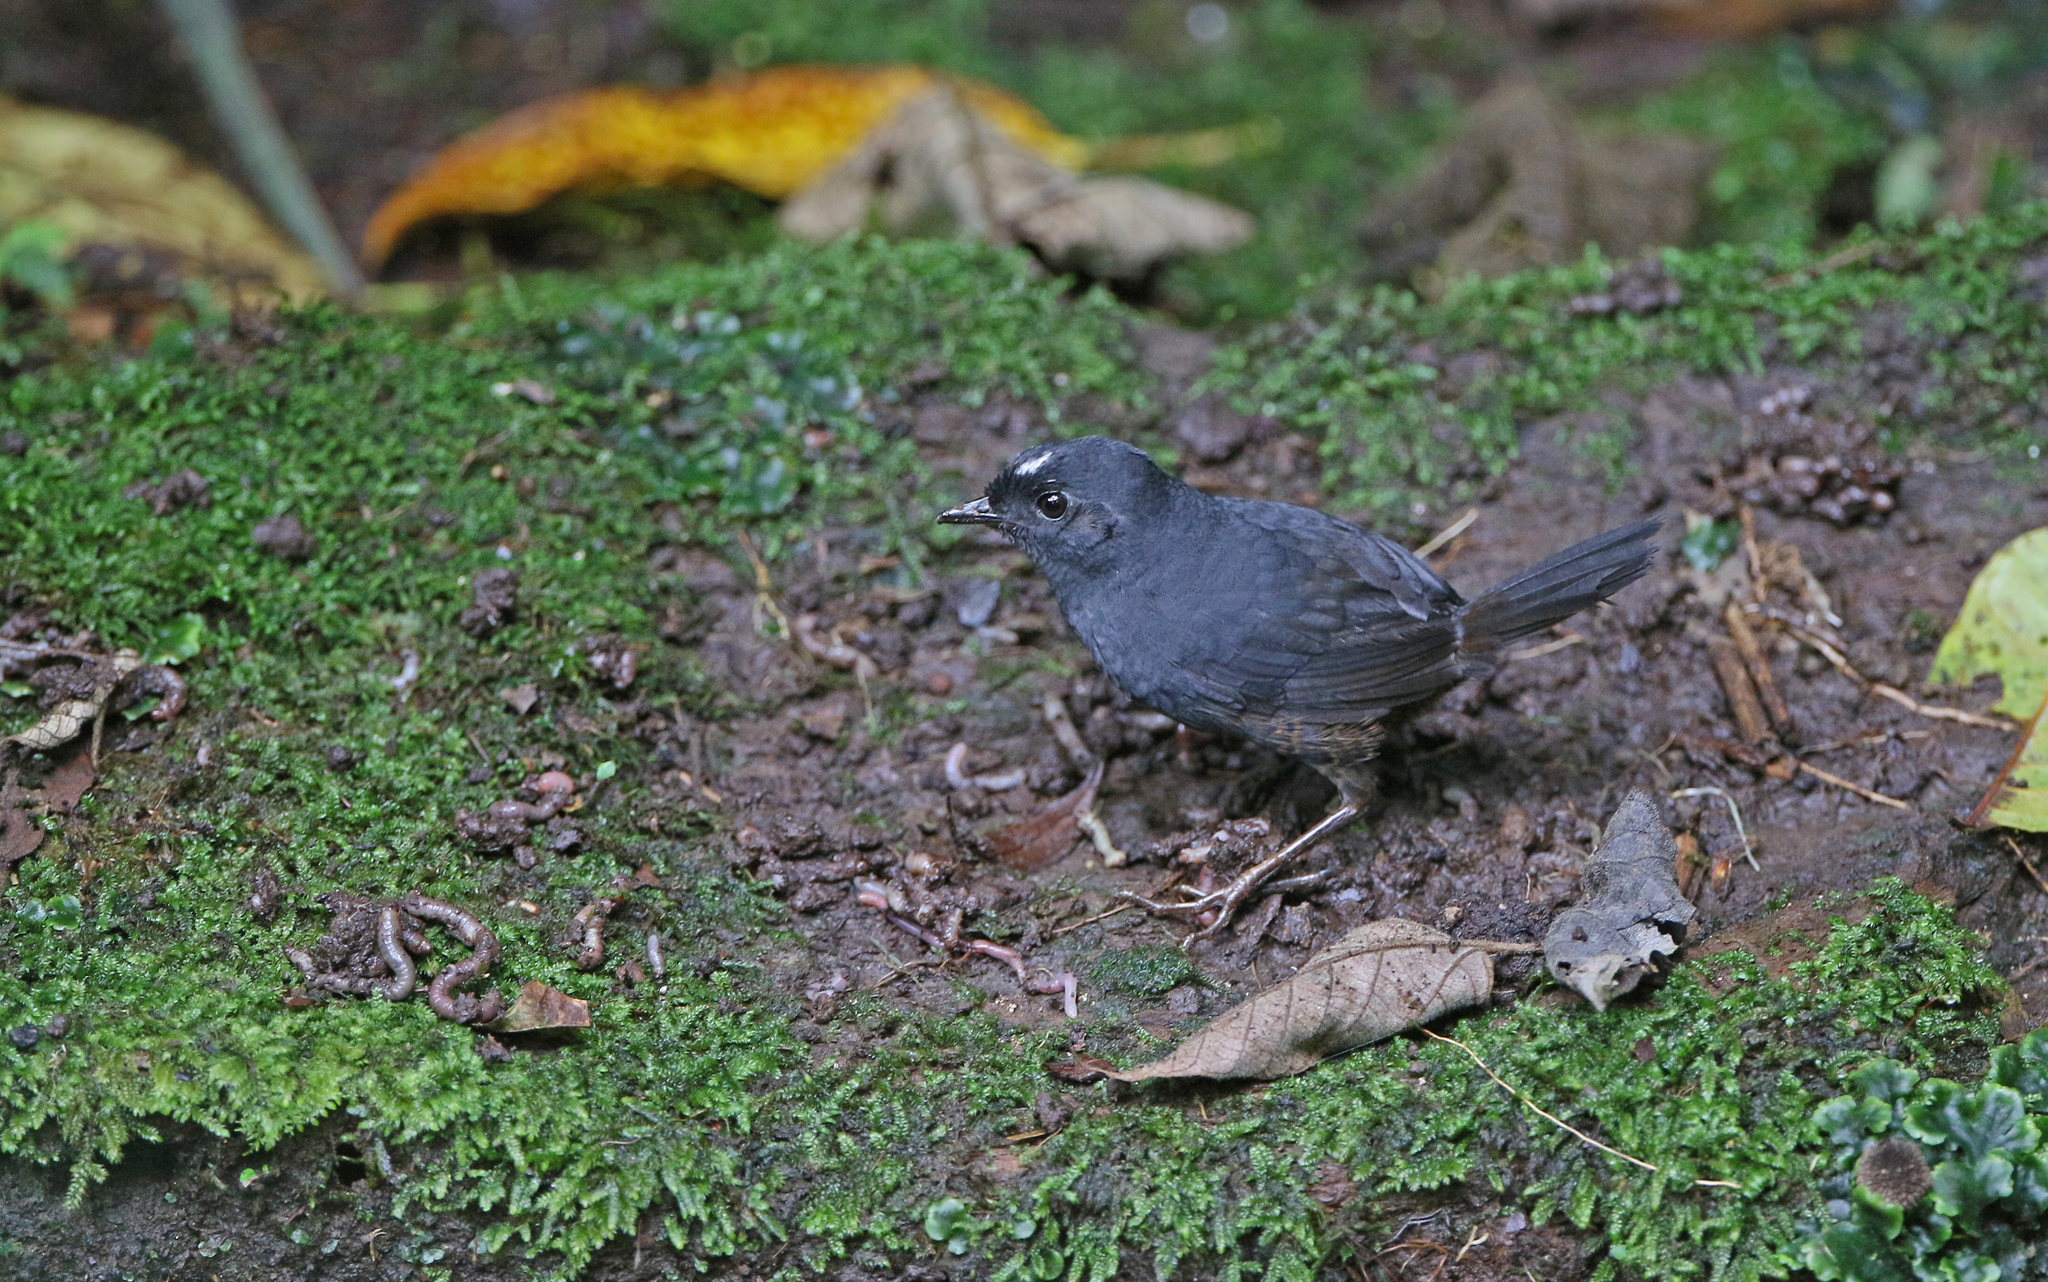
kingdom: Animalia
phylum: Chordata
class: Aves
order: Passeriformes
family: Rhinocryptidae
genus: Scytalopus
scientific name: Scytalopus atratus
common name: Northern white-crowned tapaculo
